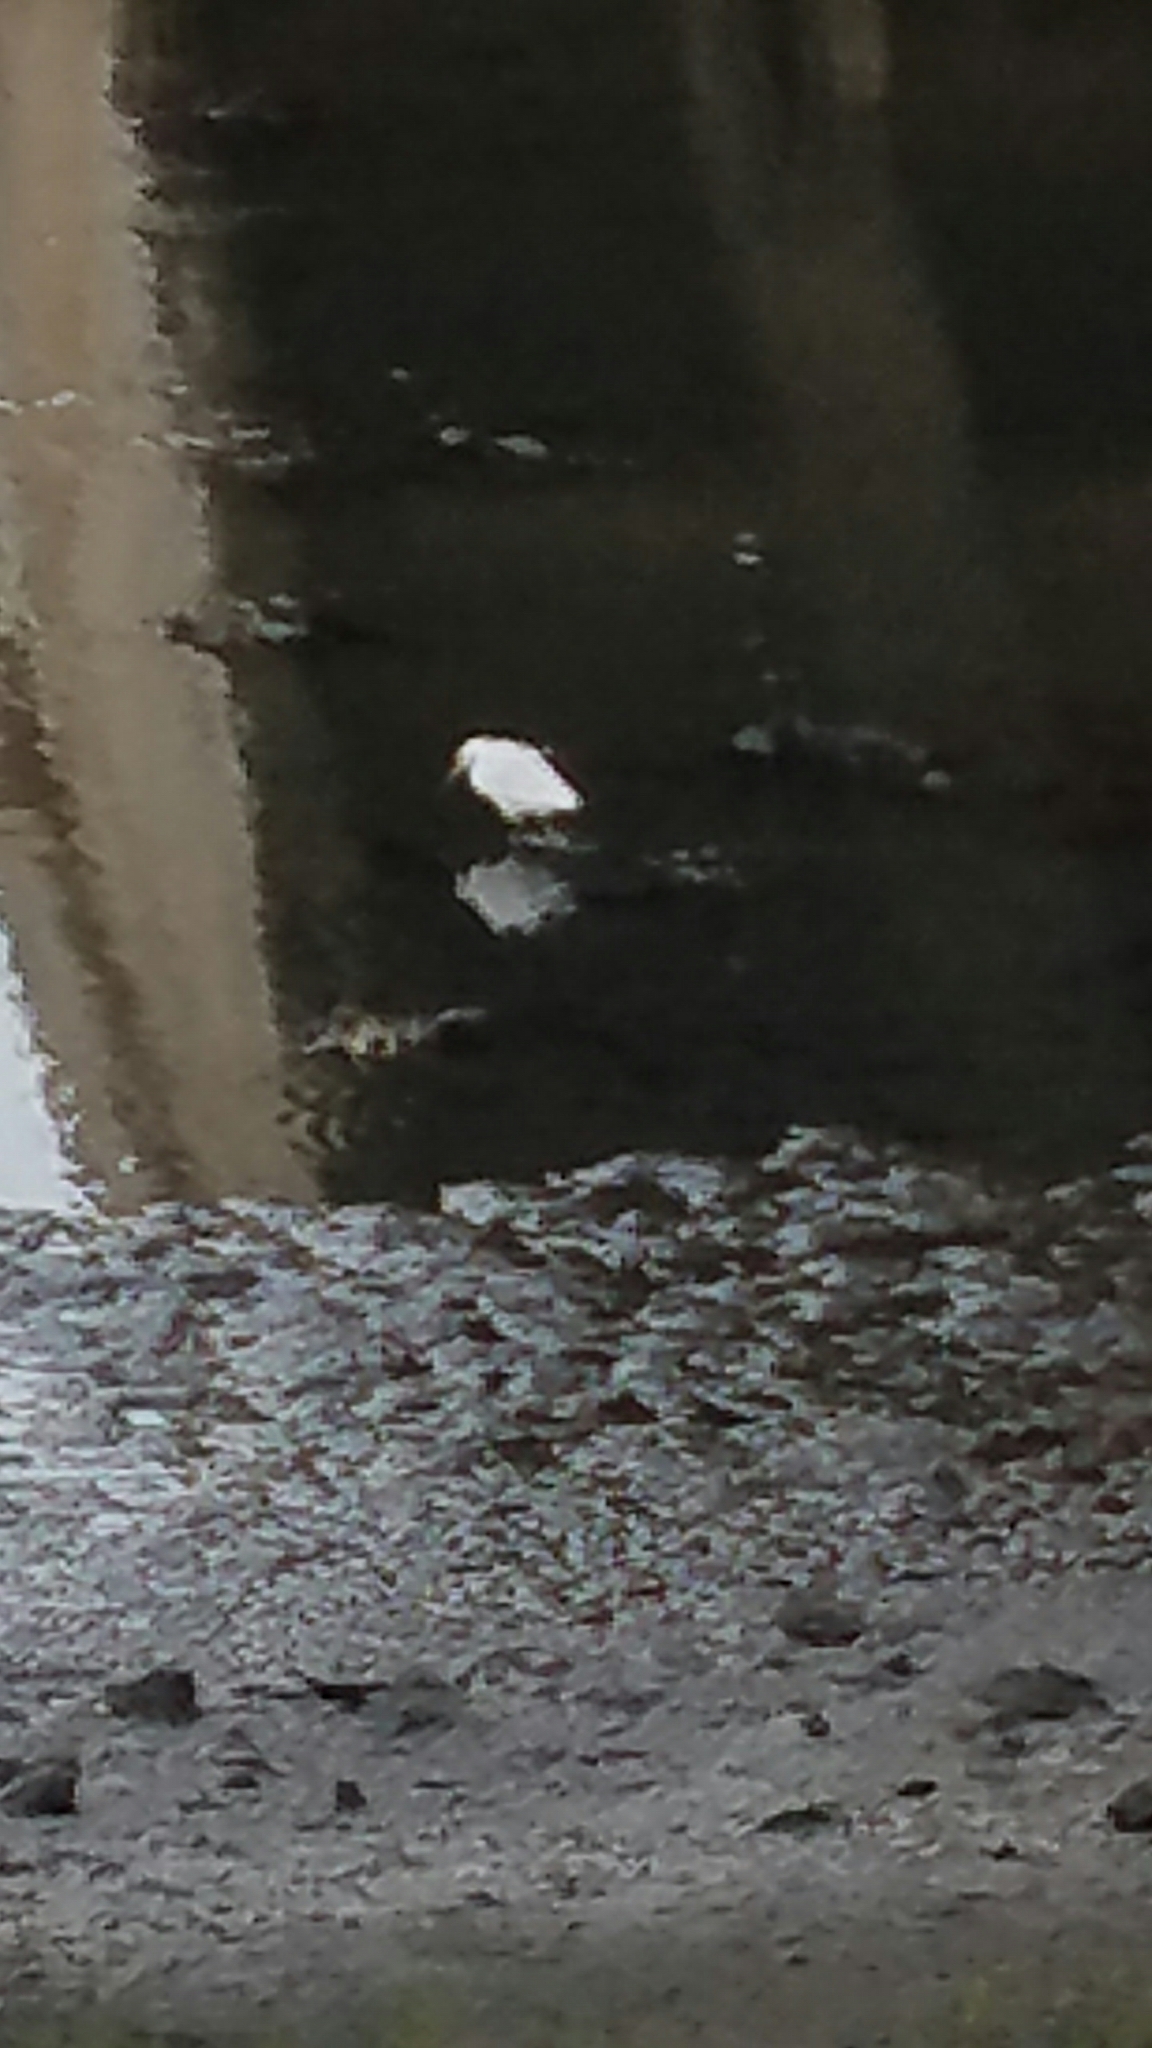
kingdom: Animalia
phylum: Chordata
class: Aves
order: Pelecaniformes
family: Ardeidae
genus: Egretta
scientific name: Egretta thula
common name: Snowy egret
